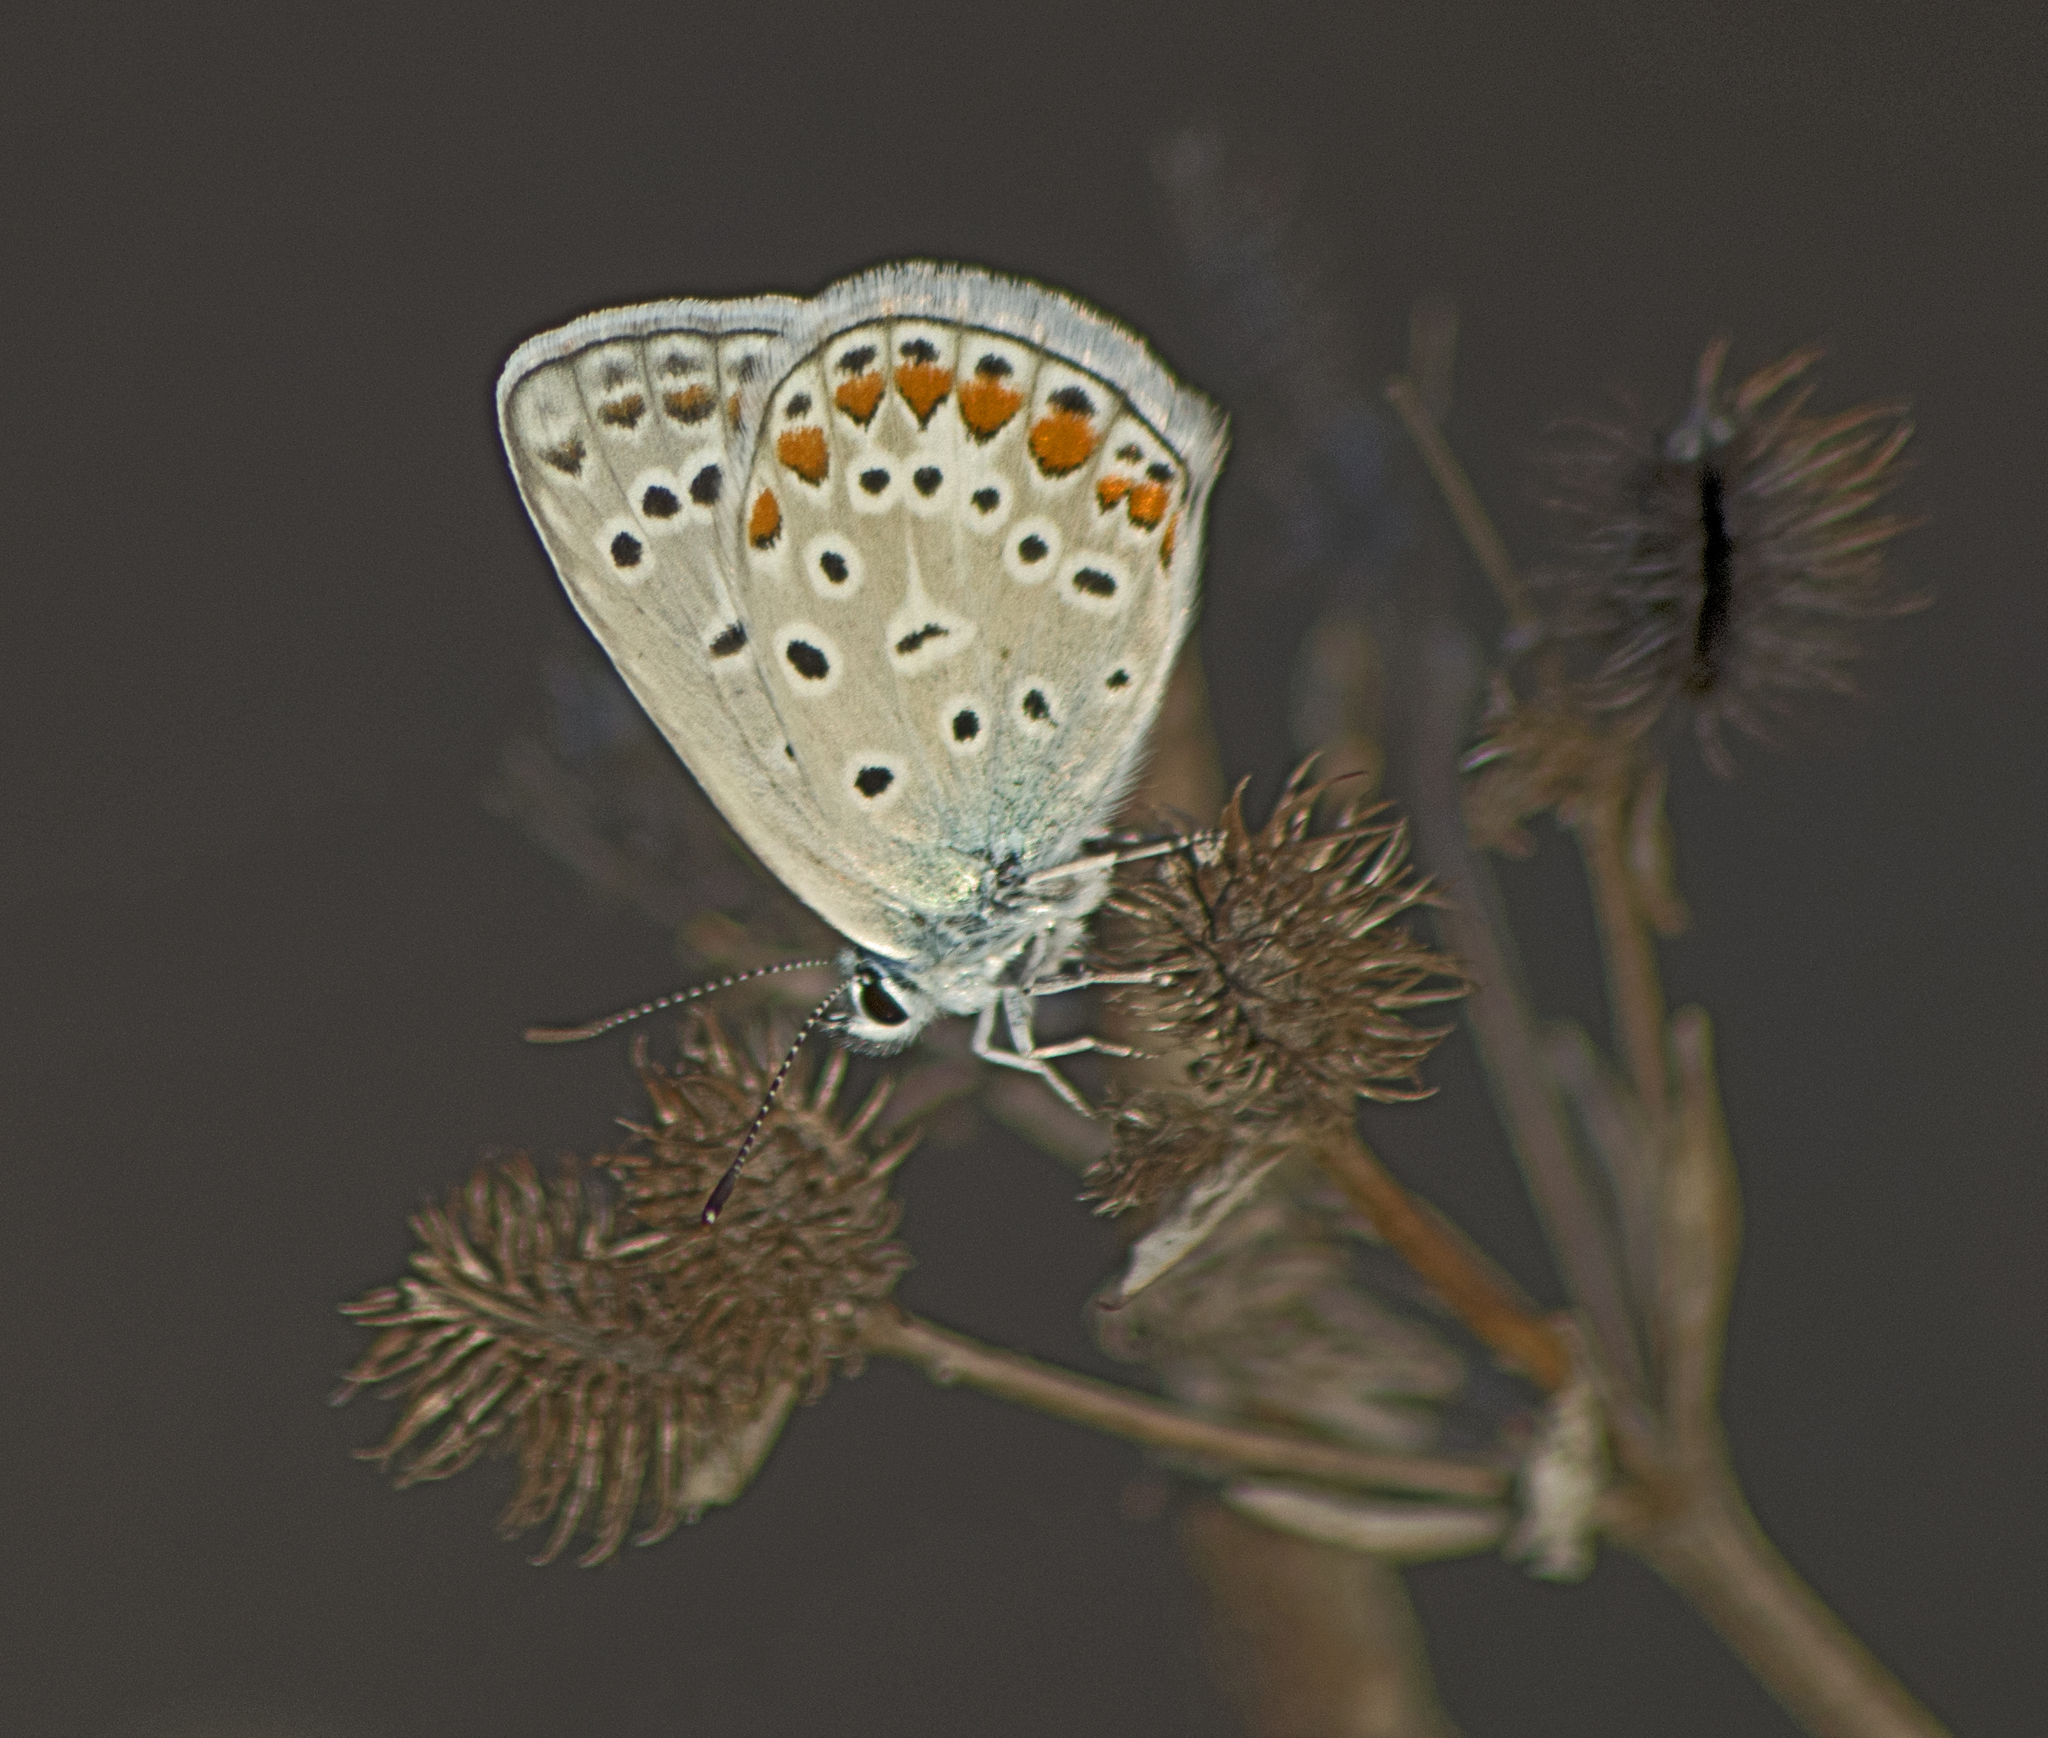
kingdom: Animalia
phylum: Arthropoda
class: Insecta
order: Lepidoptera
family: Lycaenidae
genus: Polyommatus
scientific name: Polyommatus icarus
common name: Common blue
